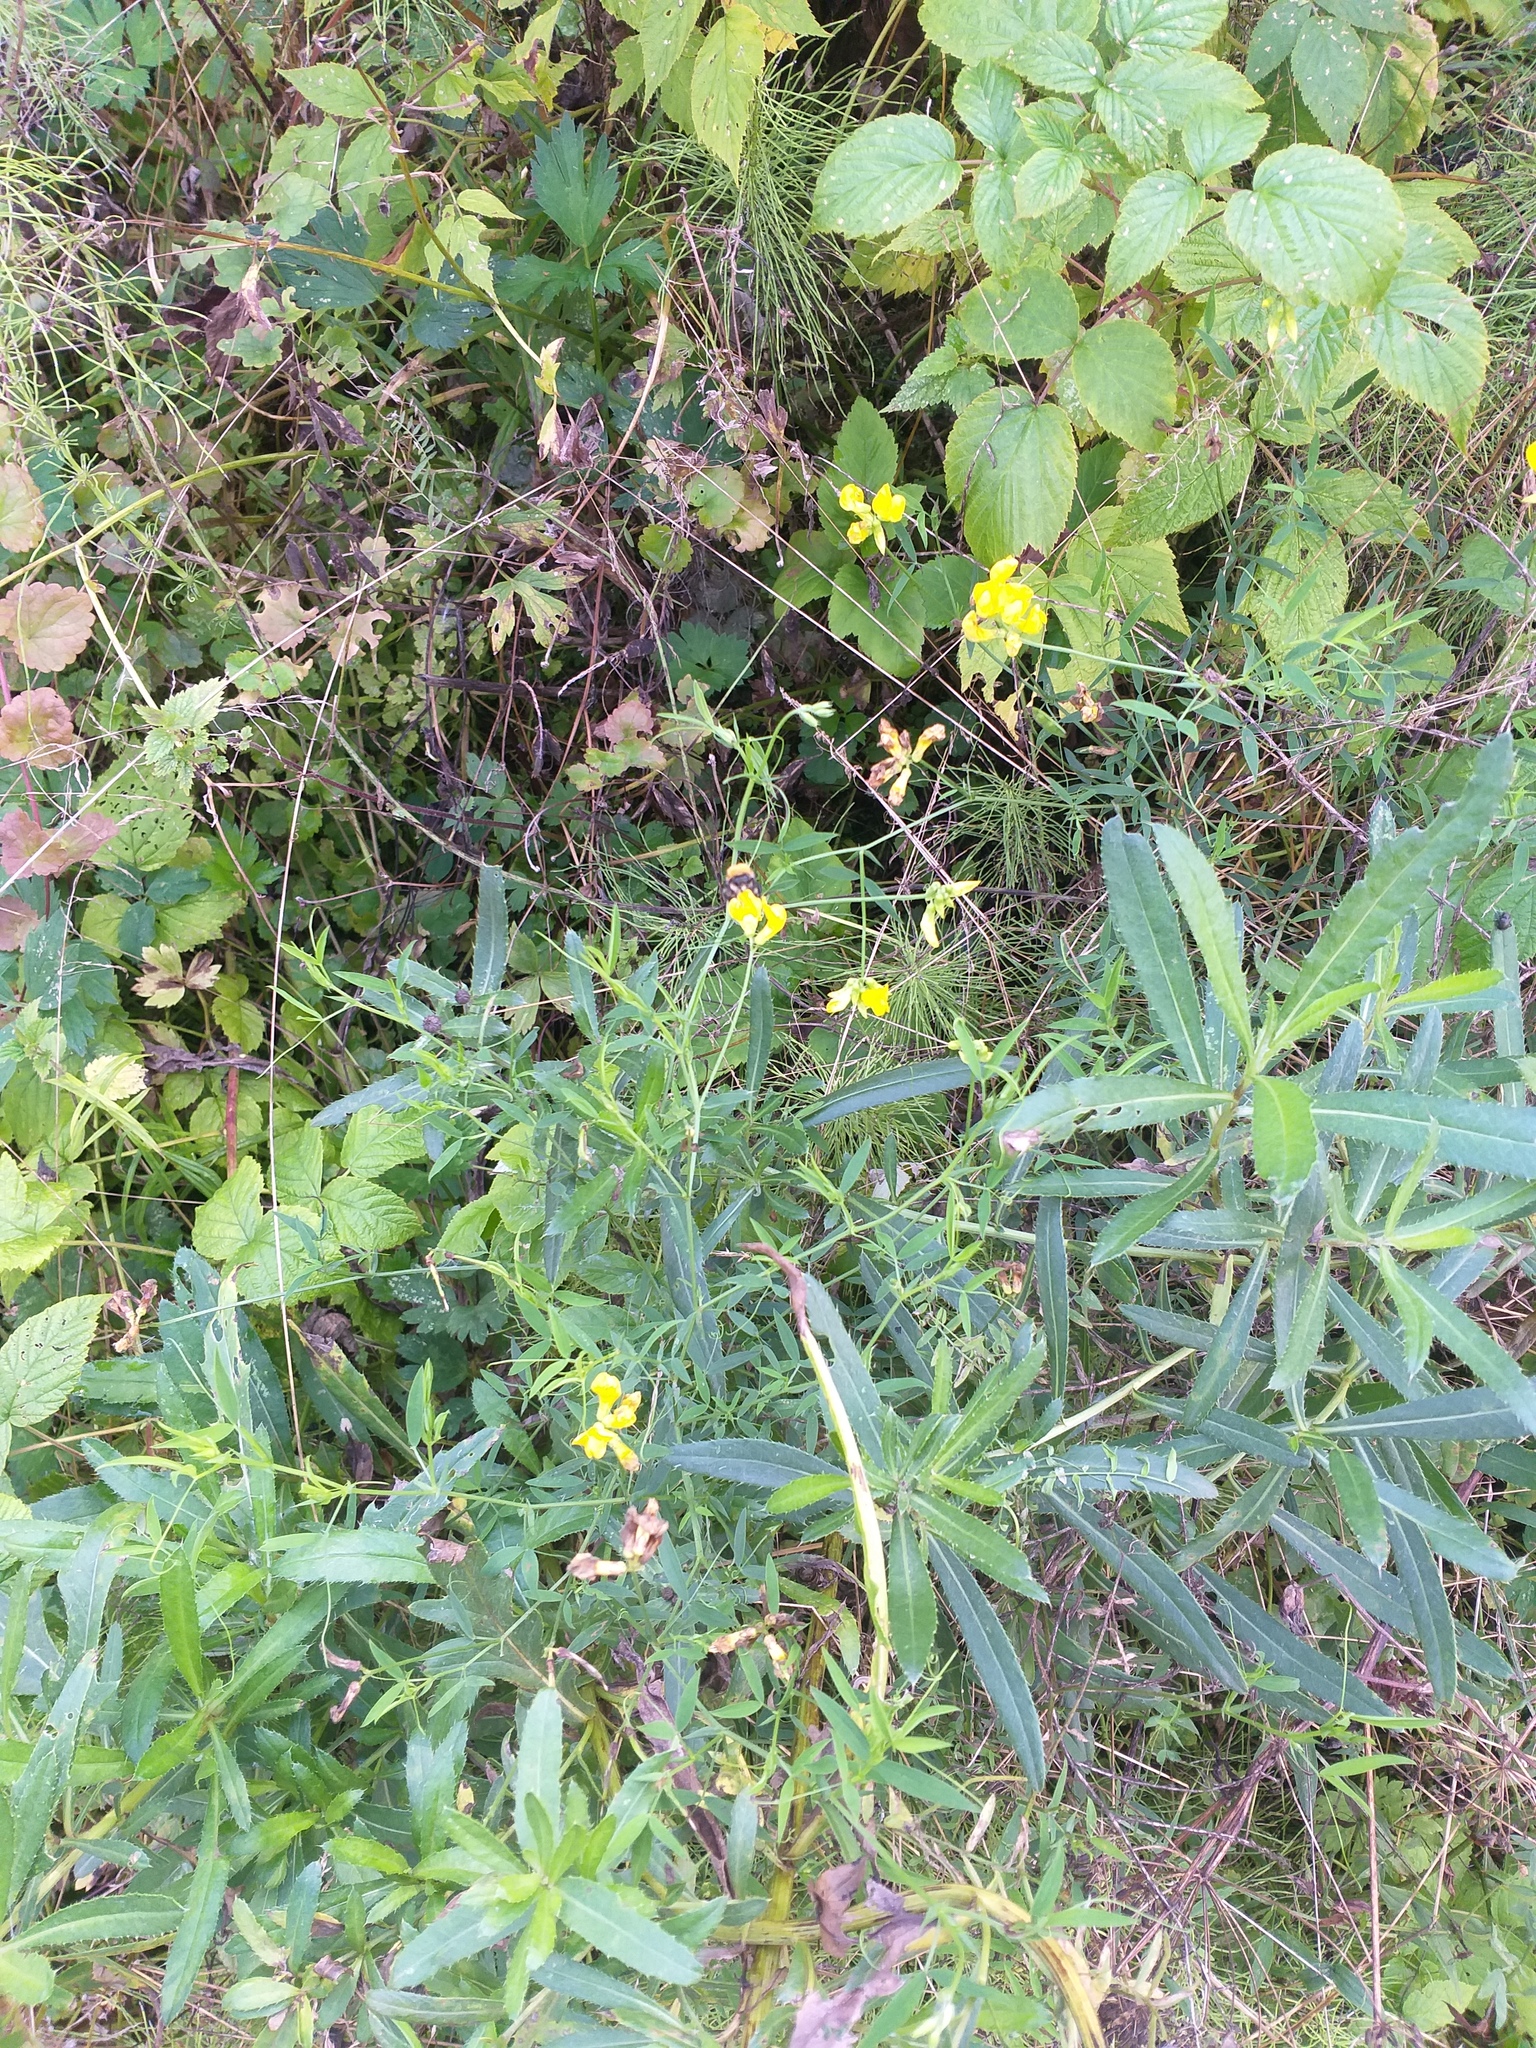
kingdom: Plantae
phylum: Tracheophyta
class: Magnoliopsida
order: Fabales
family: Fabaceae
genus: Lathyrus
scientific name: Lathyrus pratensis
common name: Meadow vetchling
